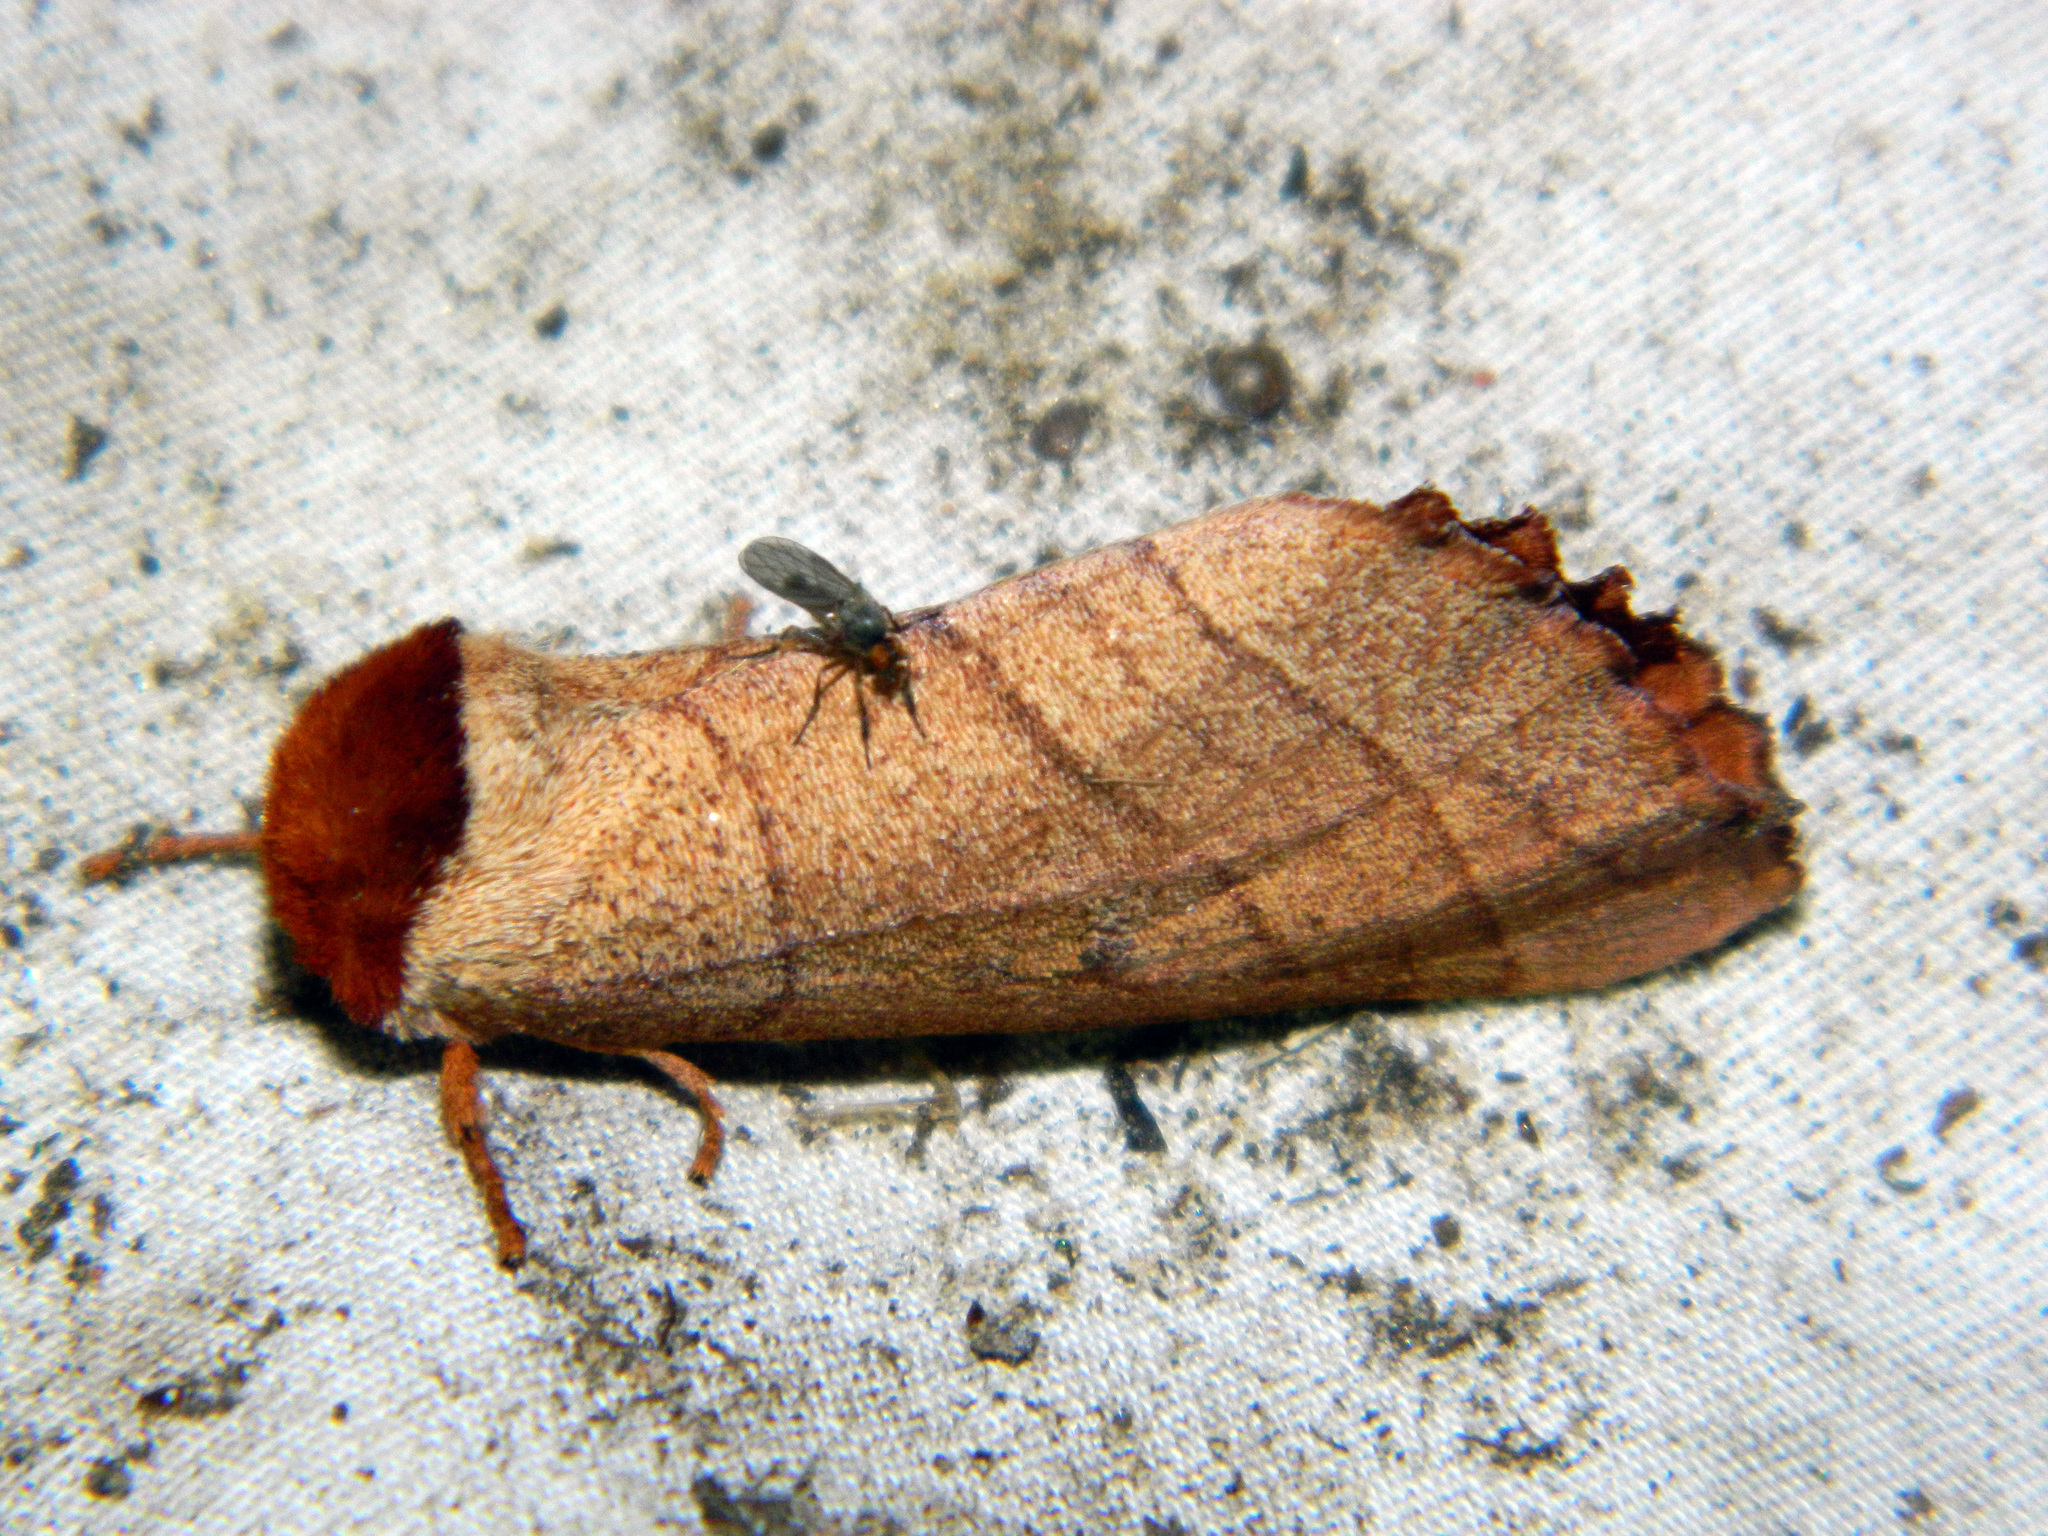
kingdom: Animalia
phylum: Arthropoda
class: Insecta
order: Lepidoptera
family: Notodontidae
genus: Datana
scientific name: Datana ministra
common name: Yellow-necked caterpillar moth
